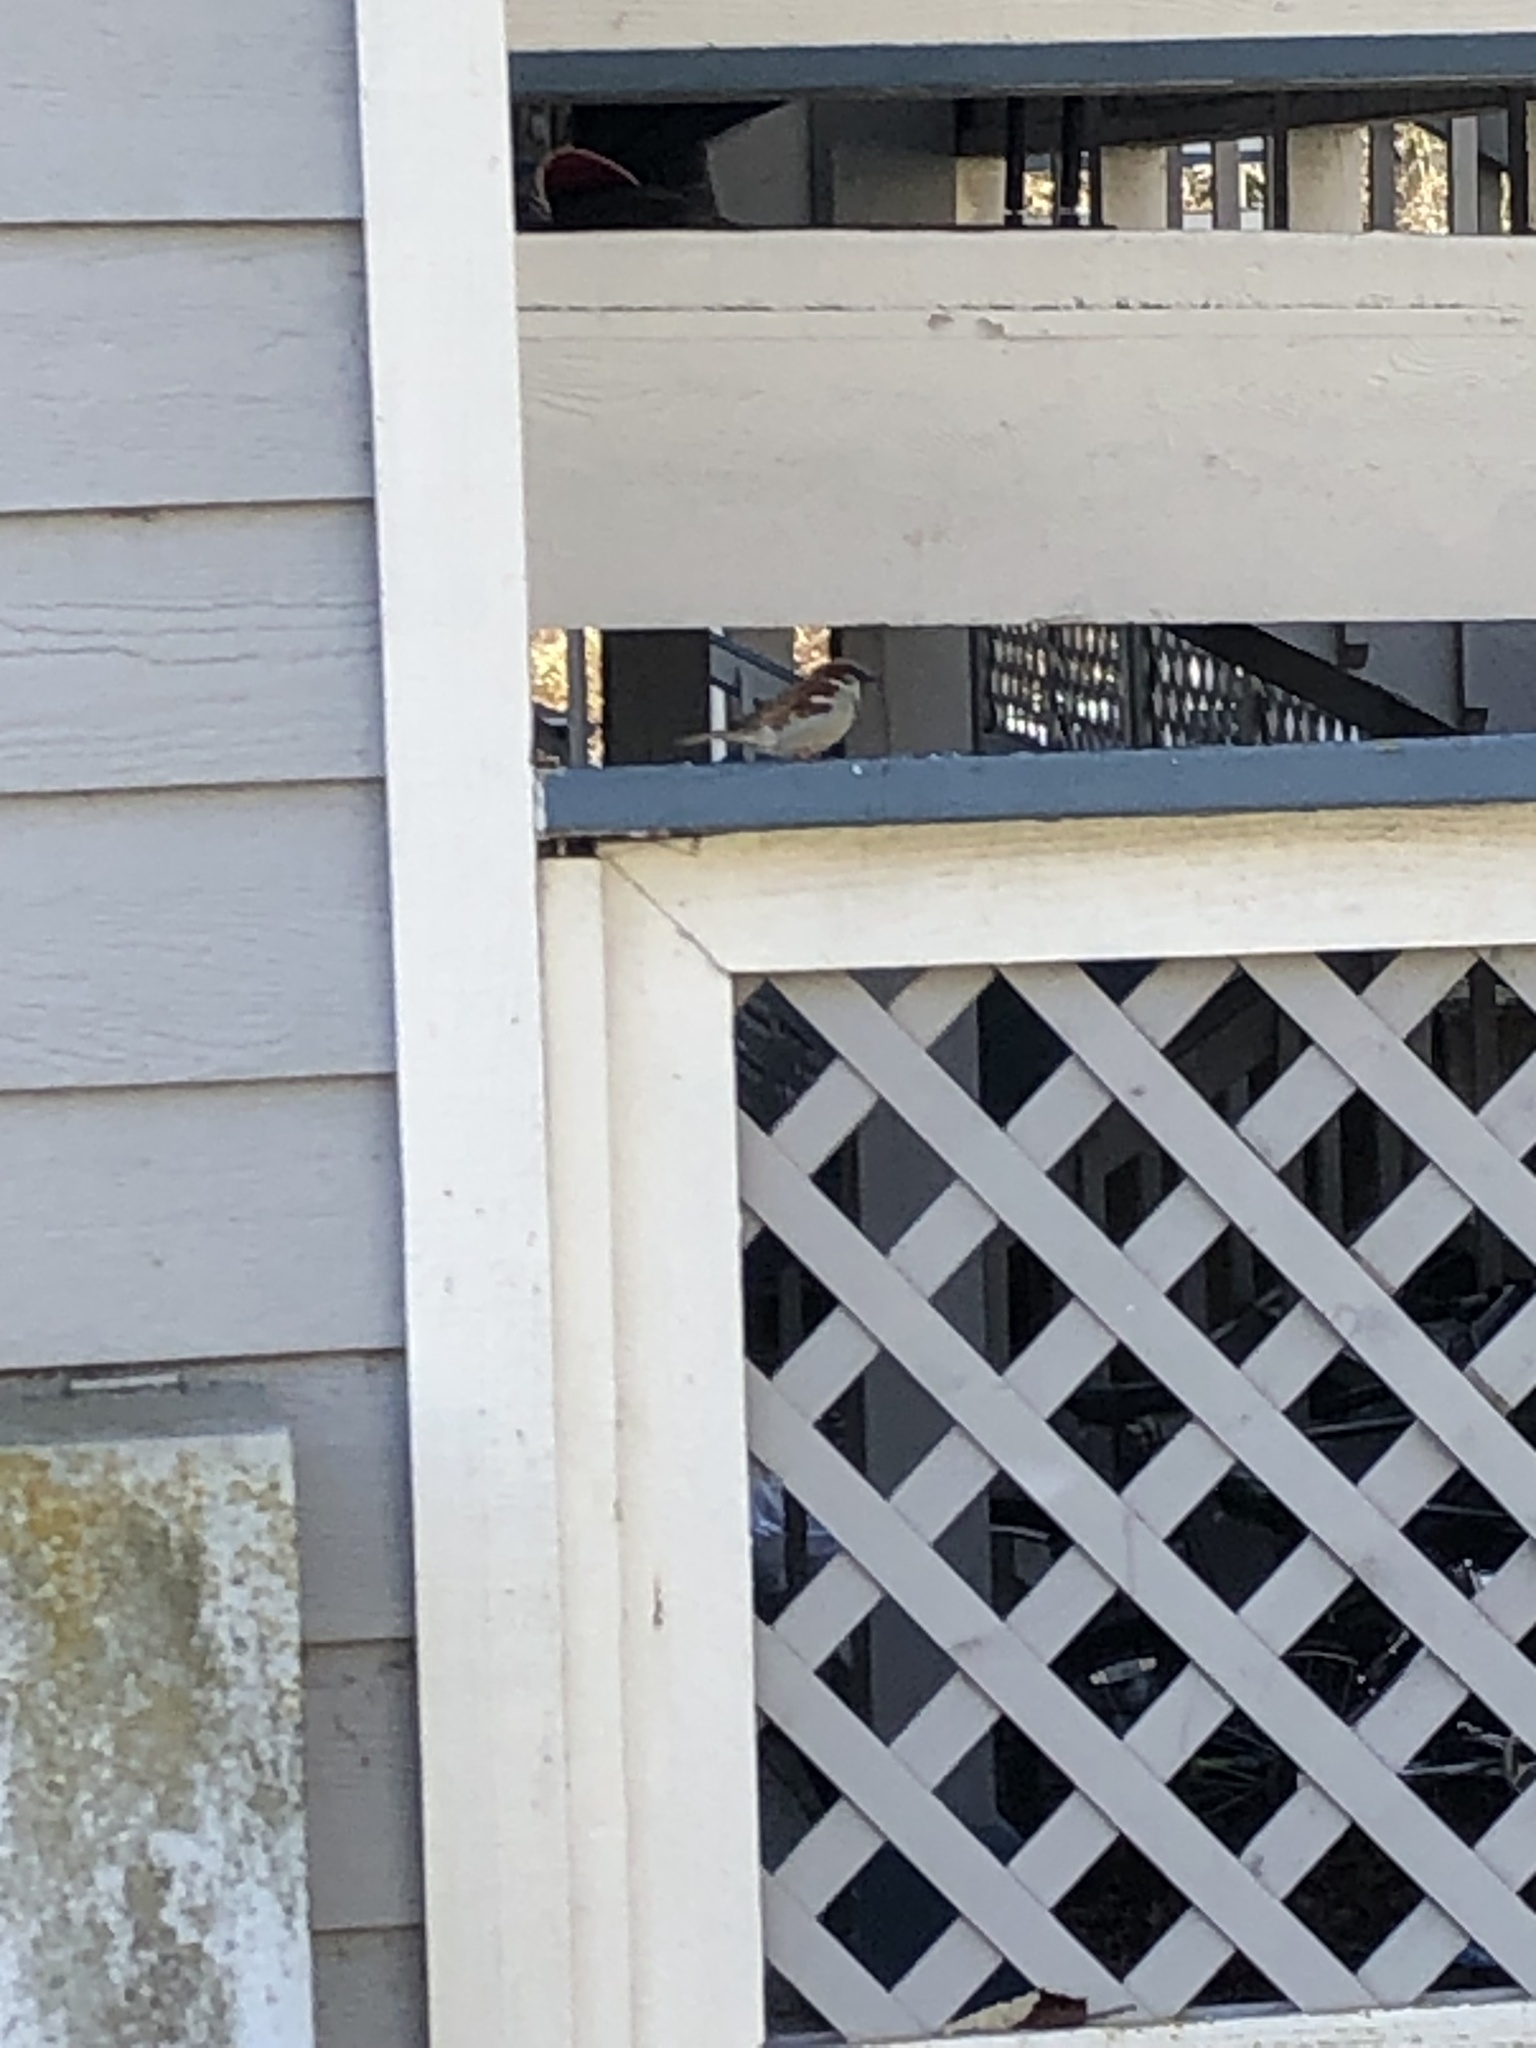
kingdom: Animalia
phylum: Chordata
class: Aves
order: Passeriformes
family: Passeridae
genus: Passer
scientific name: Passer domesticus
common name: House sparrow
